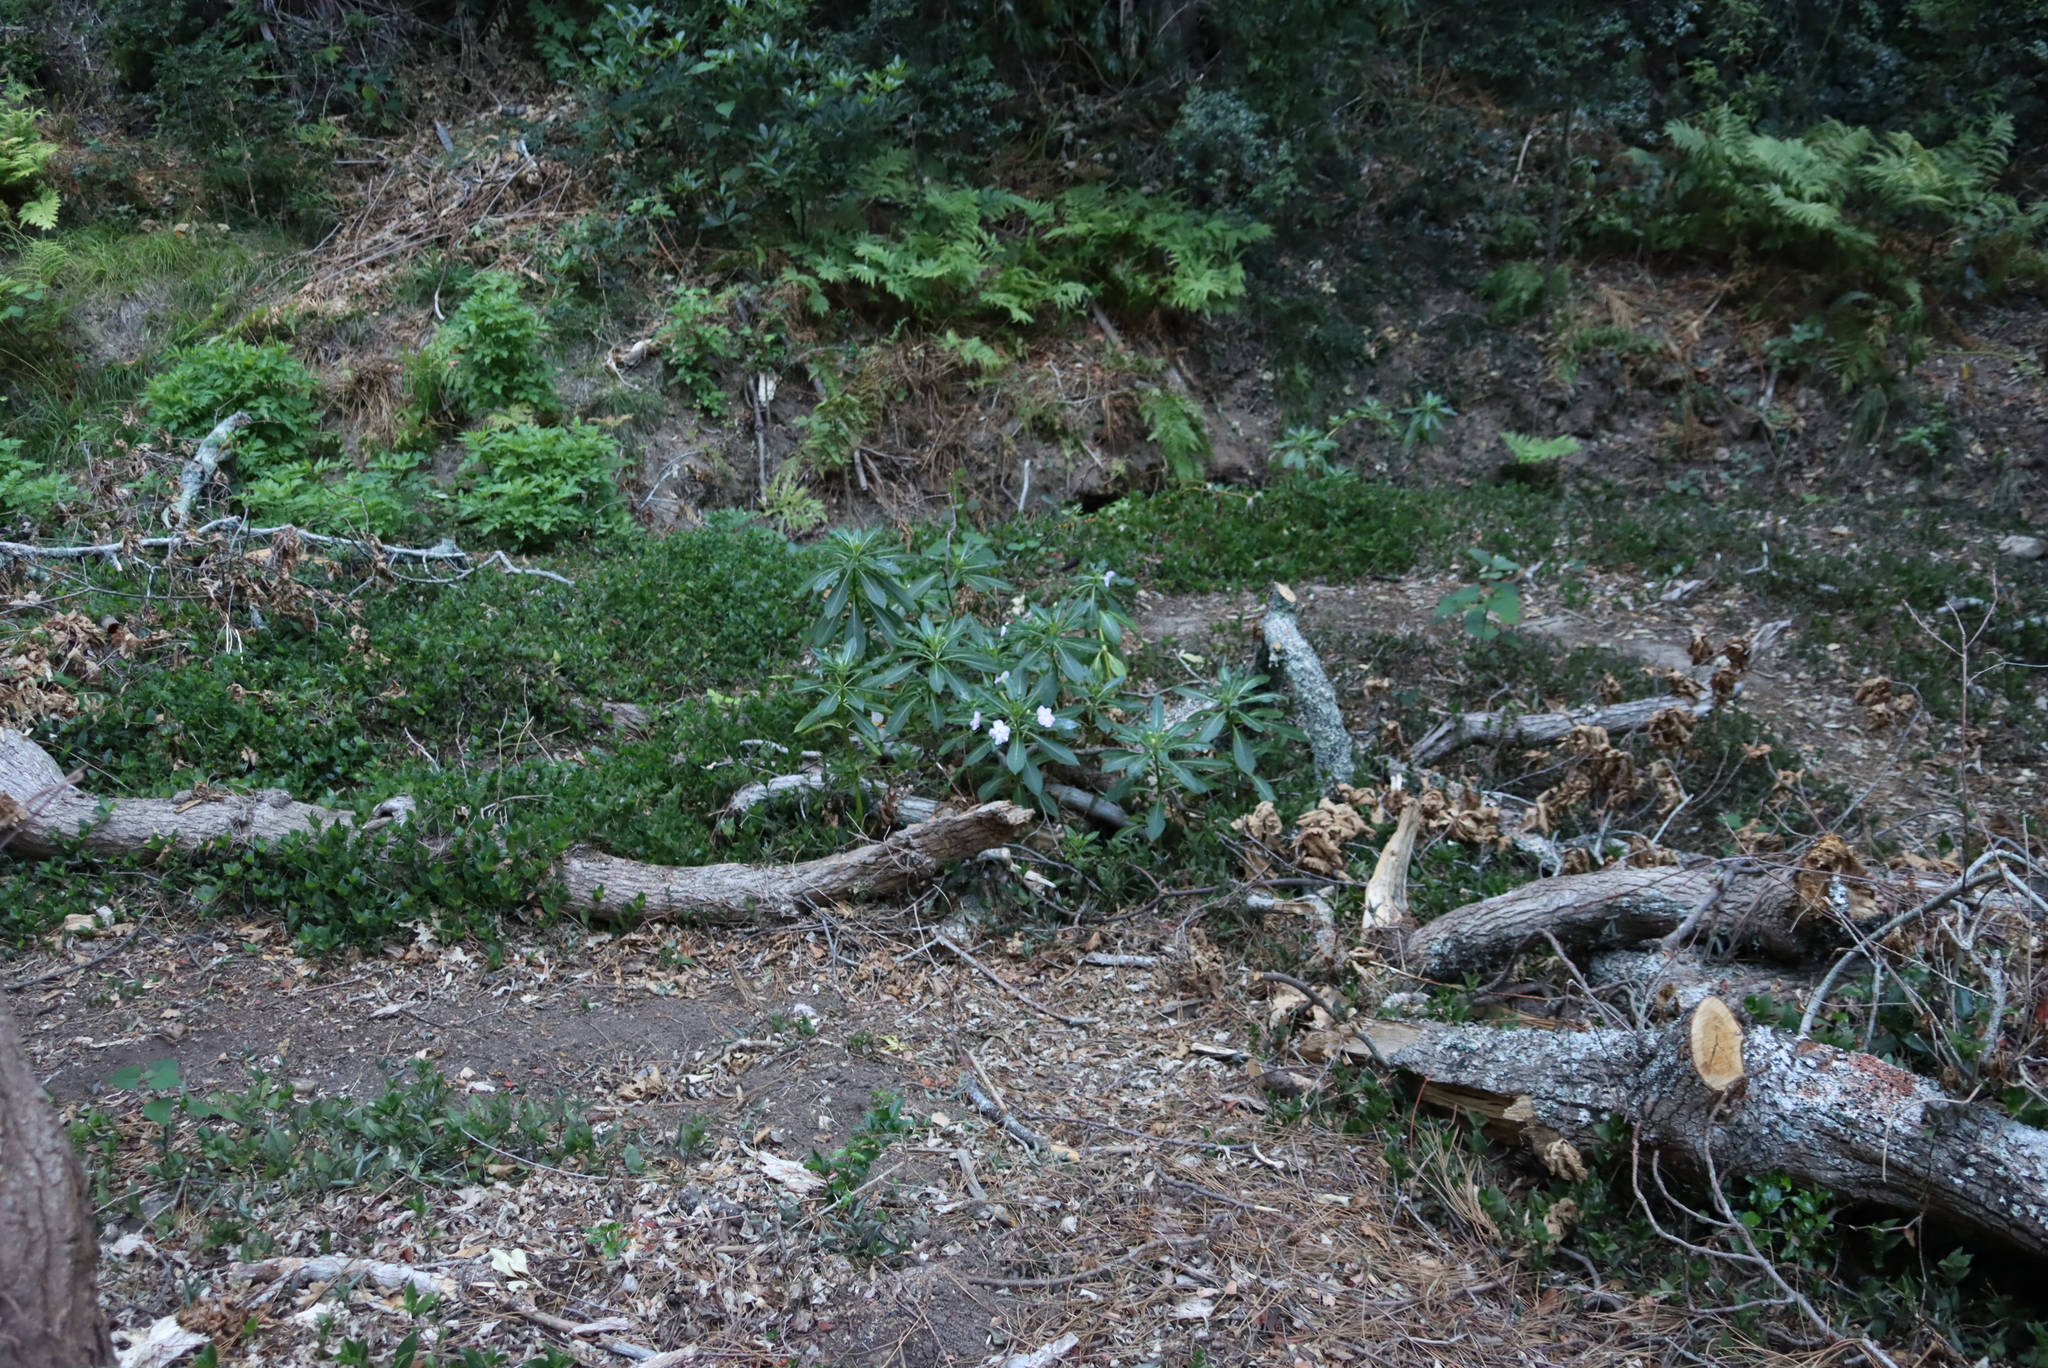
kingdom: Plantae
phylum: Tracheophyta
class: Magnoliopsida
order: Ericales
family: Balsaminaceae
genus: Impatiens
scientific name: Impatiens sodenii
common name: Oliver's touch-me-not
